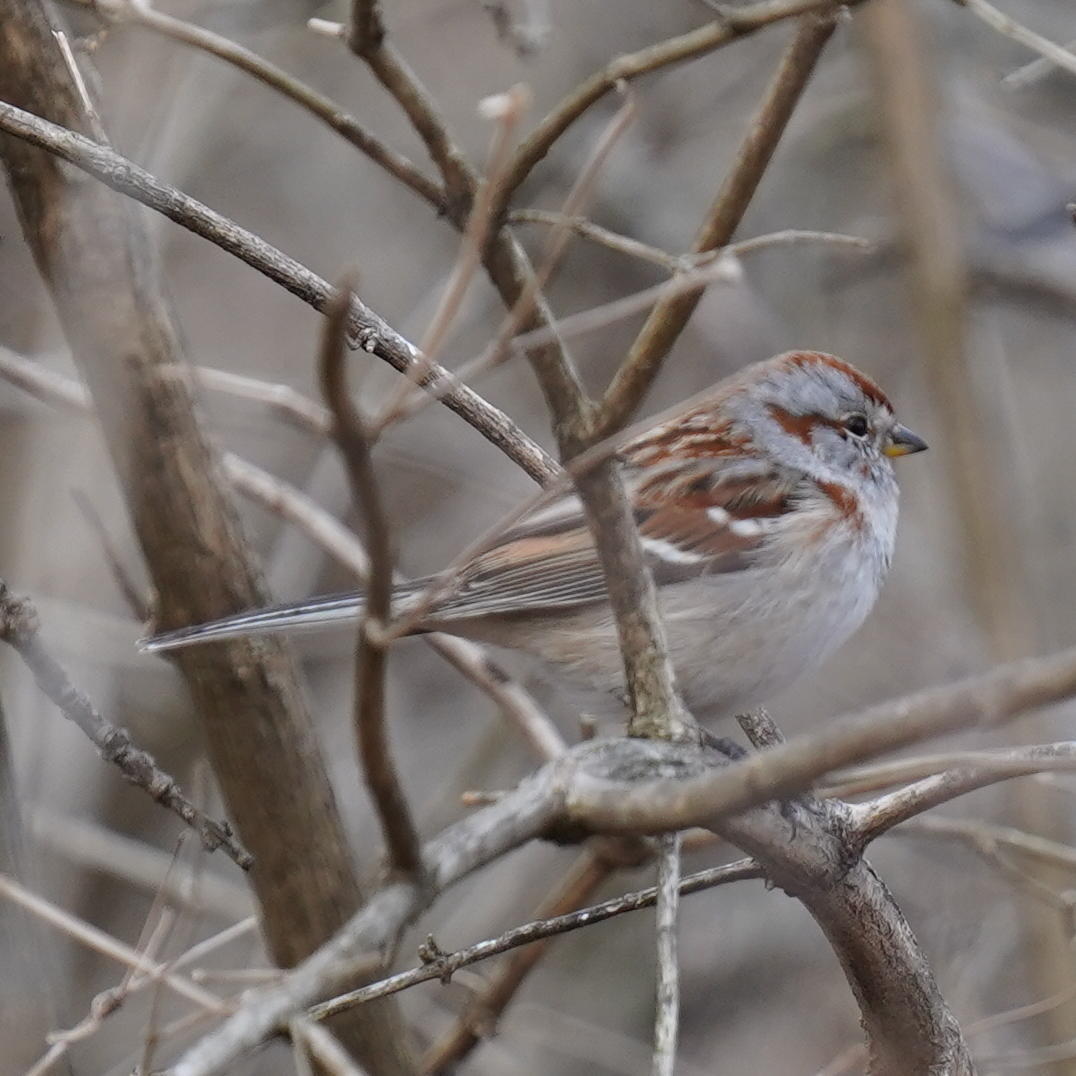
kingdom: Animalia
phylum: Chordata
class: Aves
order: Passeriformes
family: Passerellidae
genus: Spizelloides
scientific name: Spizelloides arborea
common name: American tree sparrow
